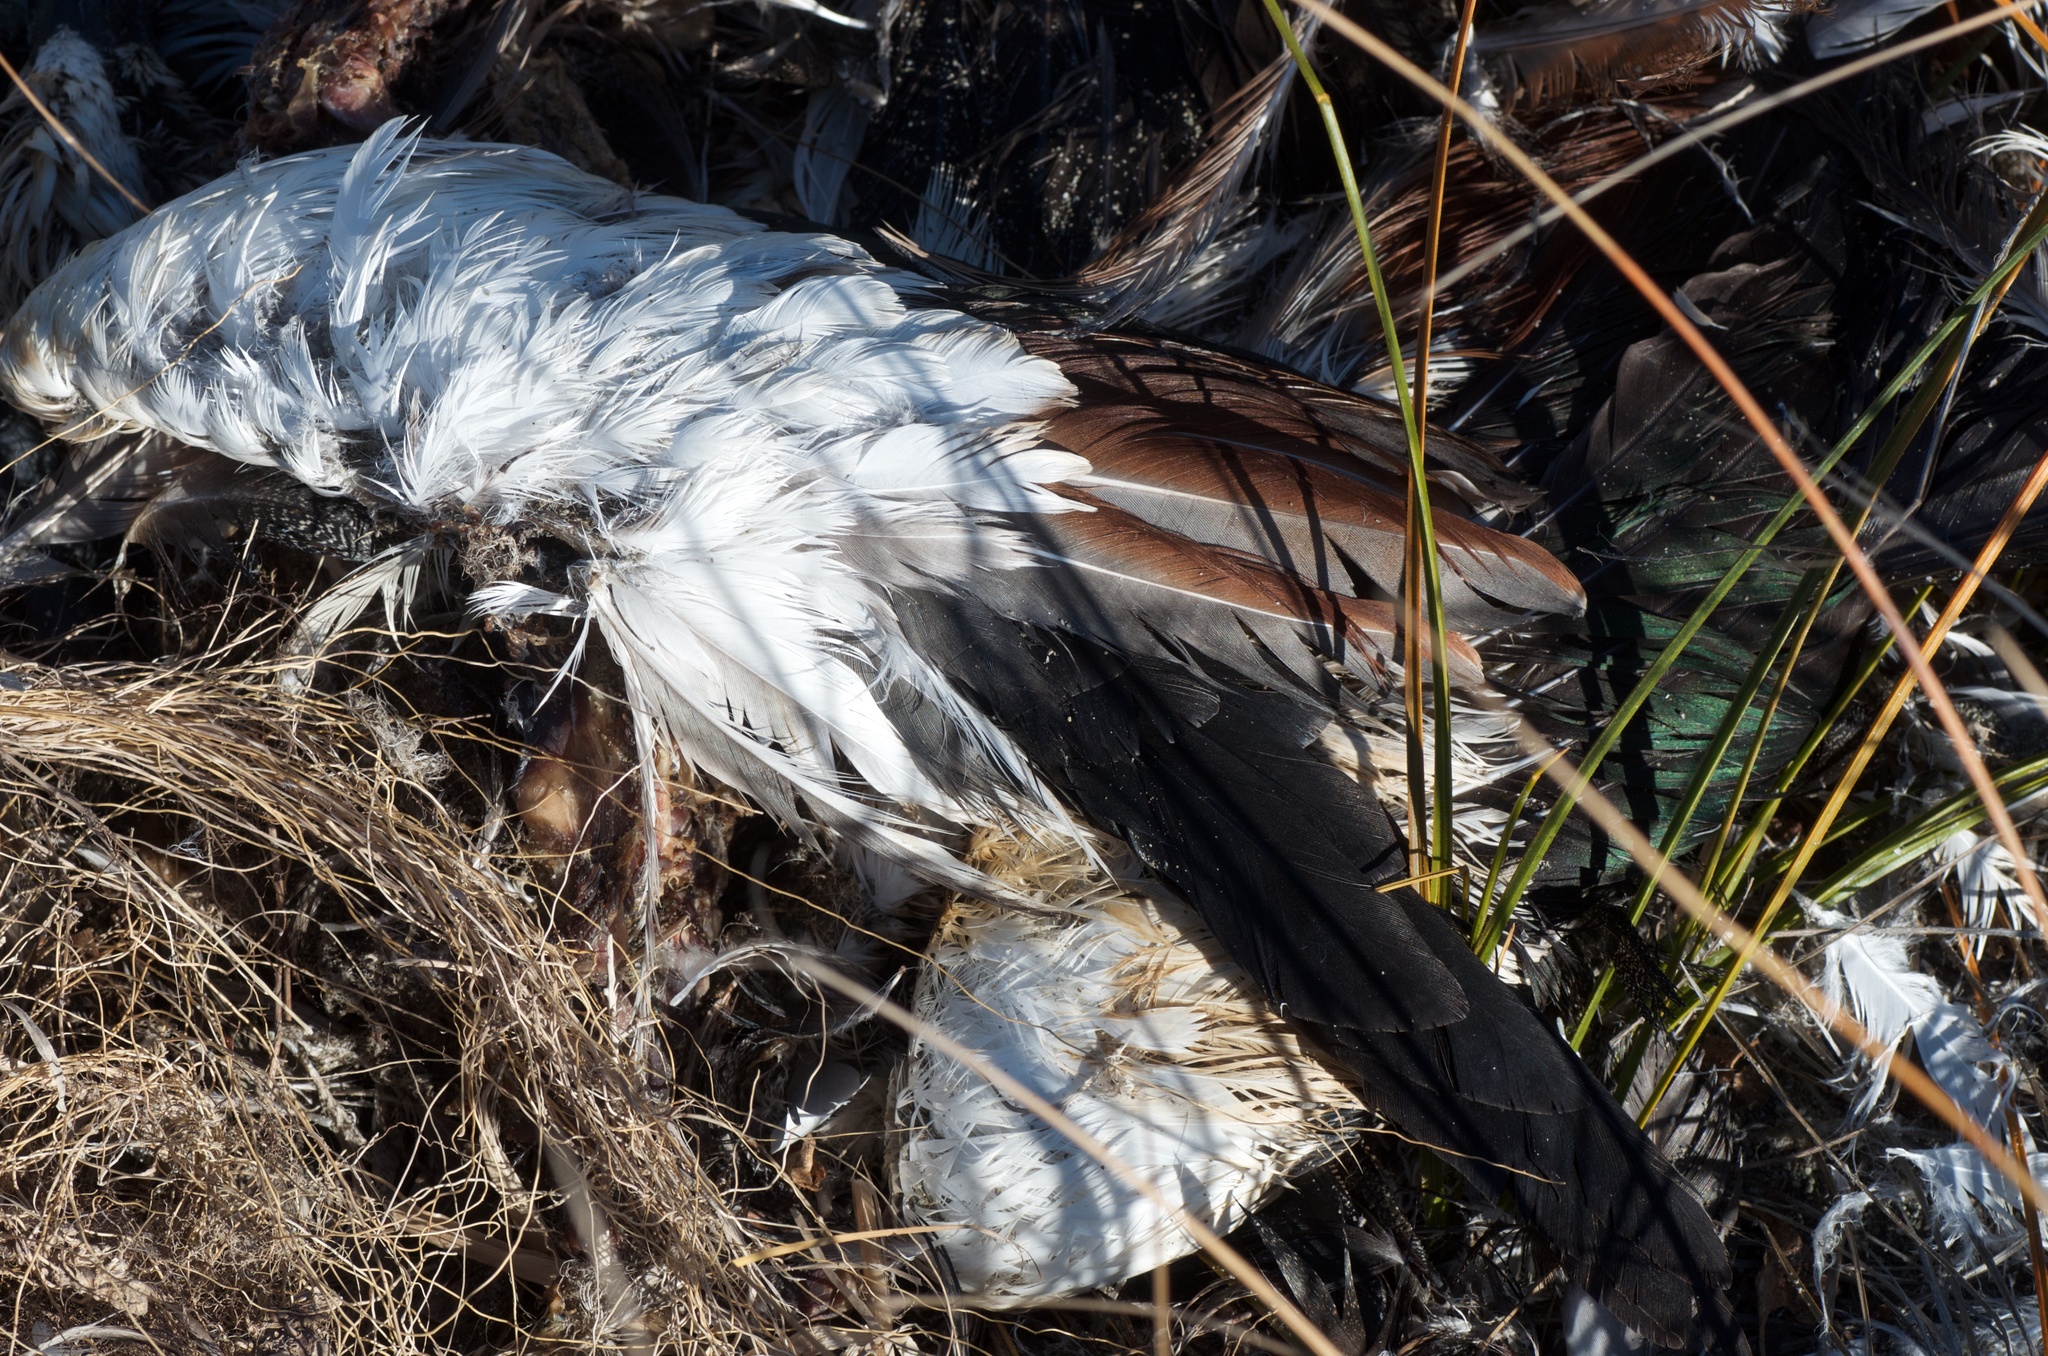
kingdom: Animalia
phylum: Chordata
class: Aves
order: Anseriformes
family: Anatidae
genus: Tadorna
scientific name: Tadorna variegata
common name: Paradise shelduck
